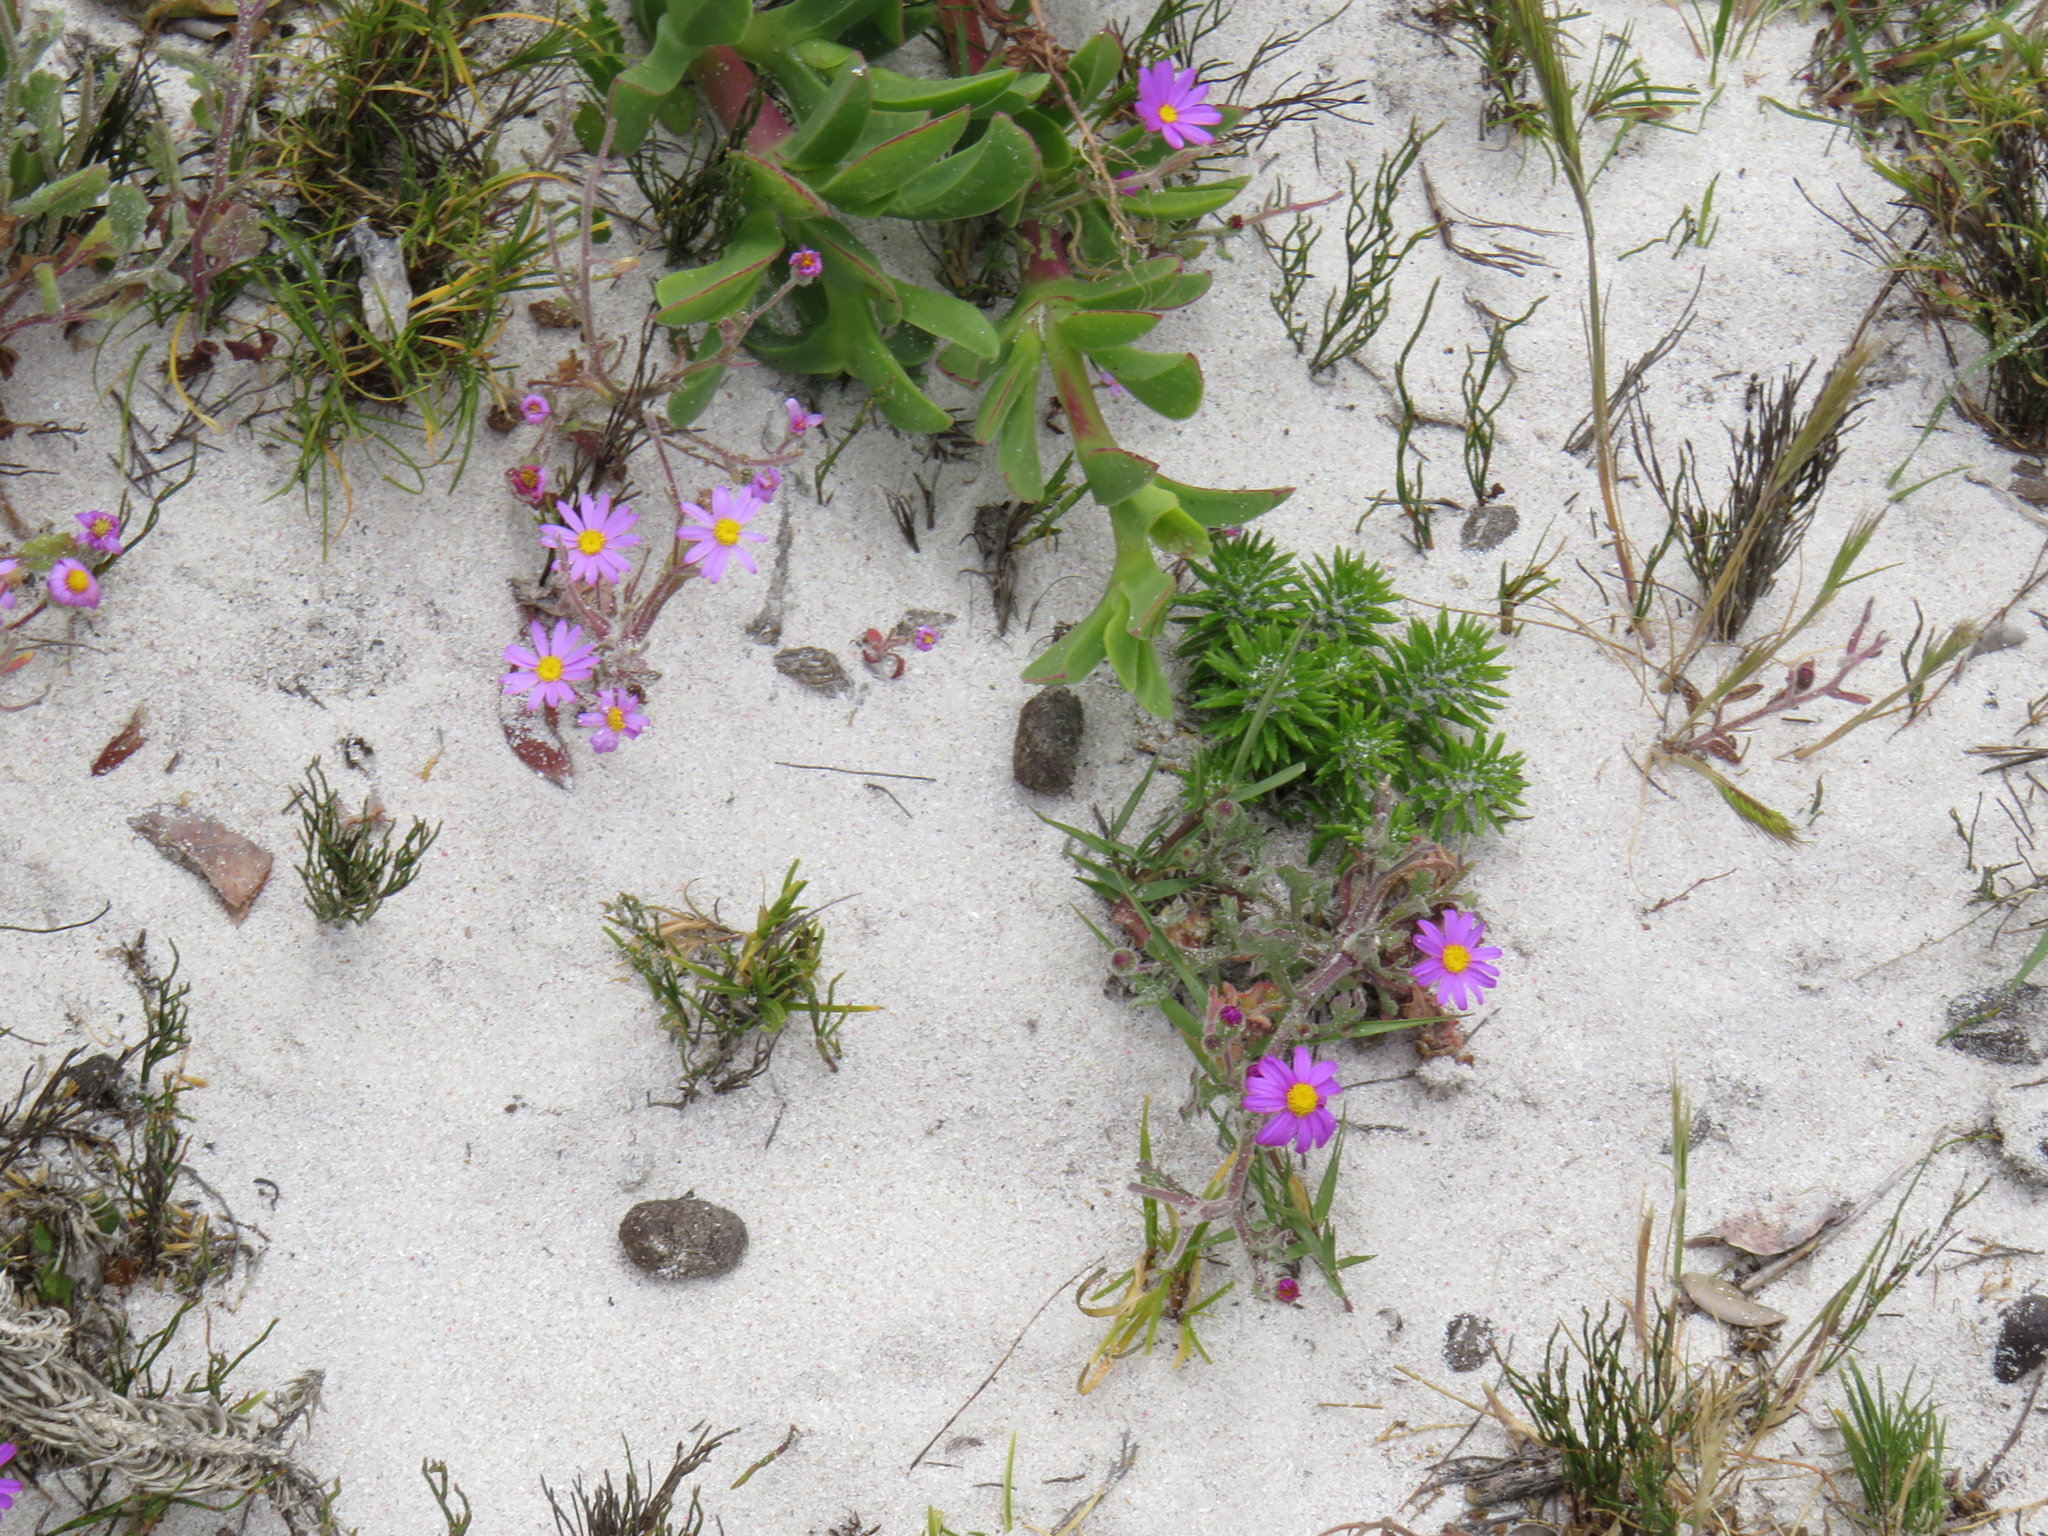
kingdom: Plantae
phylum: Tracheophyta
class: Magnoliopsida
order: Asterales
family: Asteraceae
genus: Senecio
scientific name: Senecio arenarius
